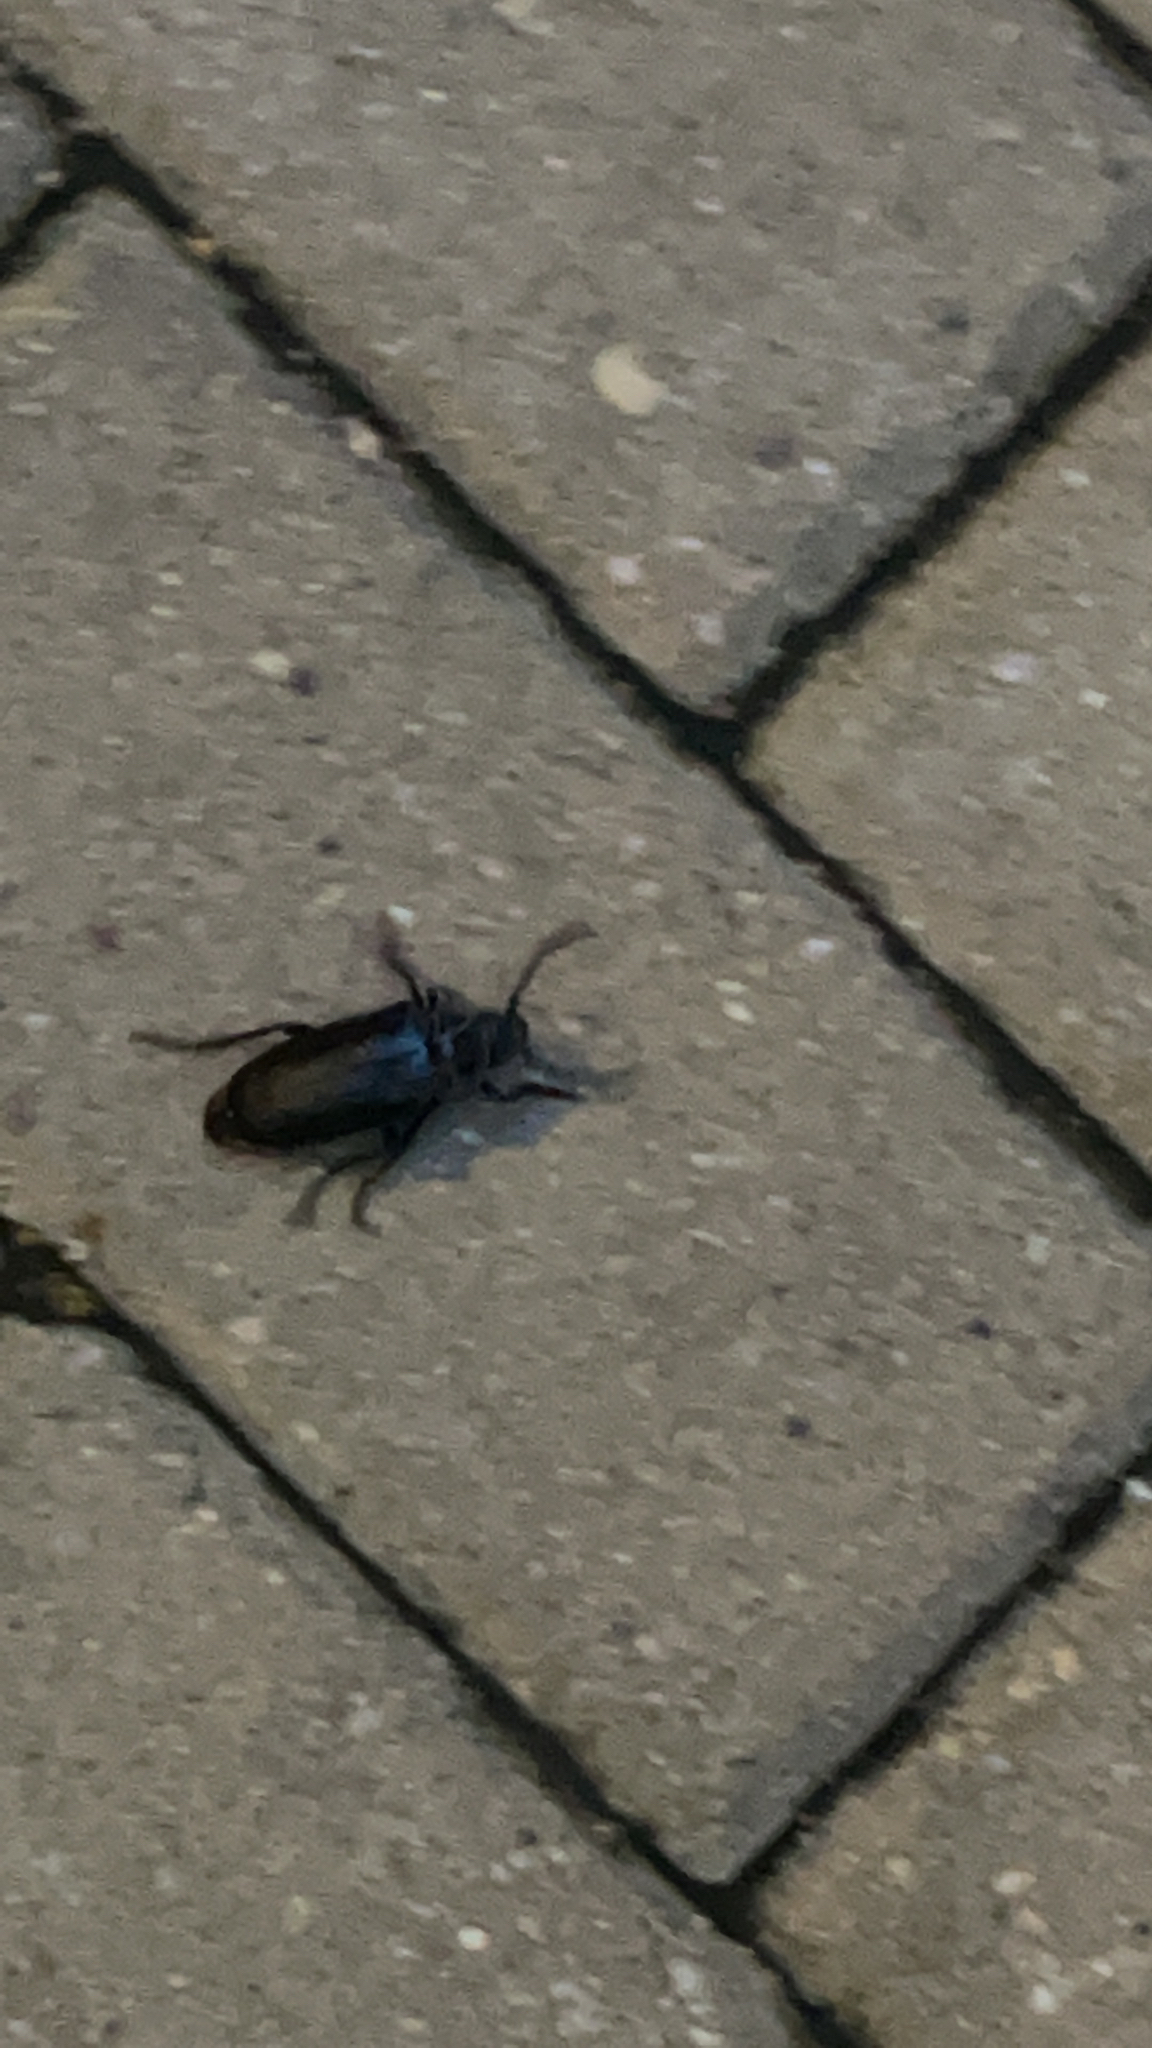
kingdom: Animalia
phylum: Arthropoda
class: Insecta
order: Coleoptera
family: Cerambycidae
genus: Prionus
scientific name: Prionus coriarius
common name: Tanner beetle
